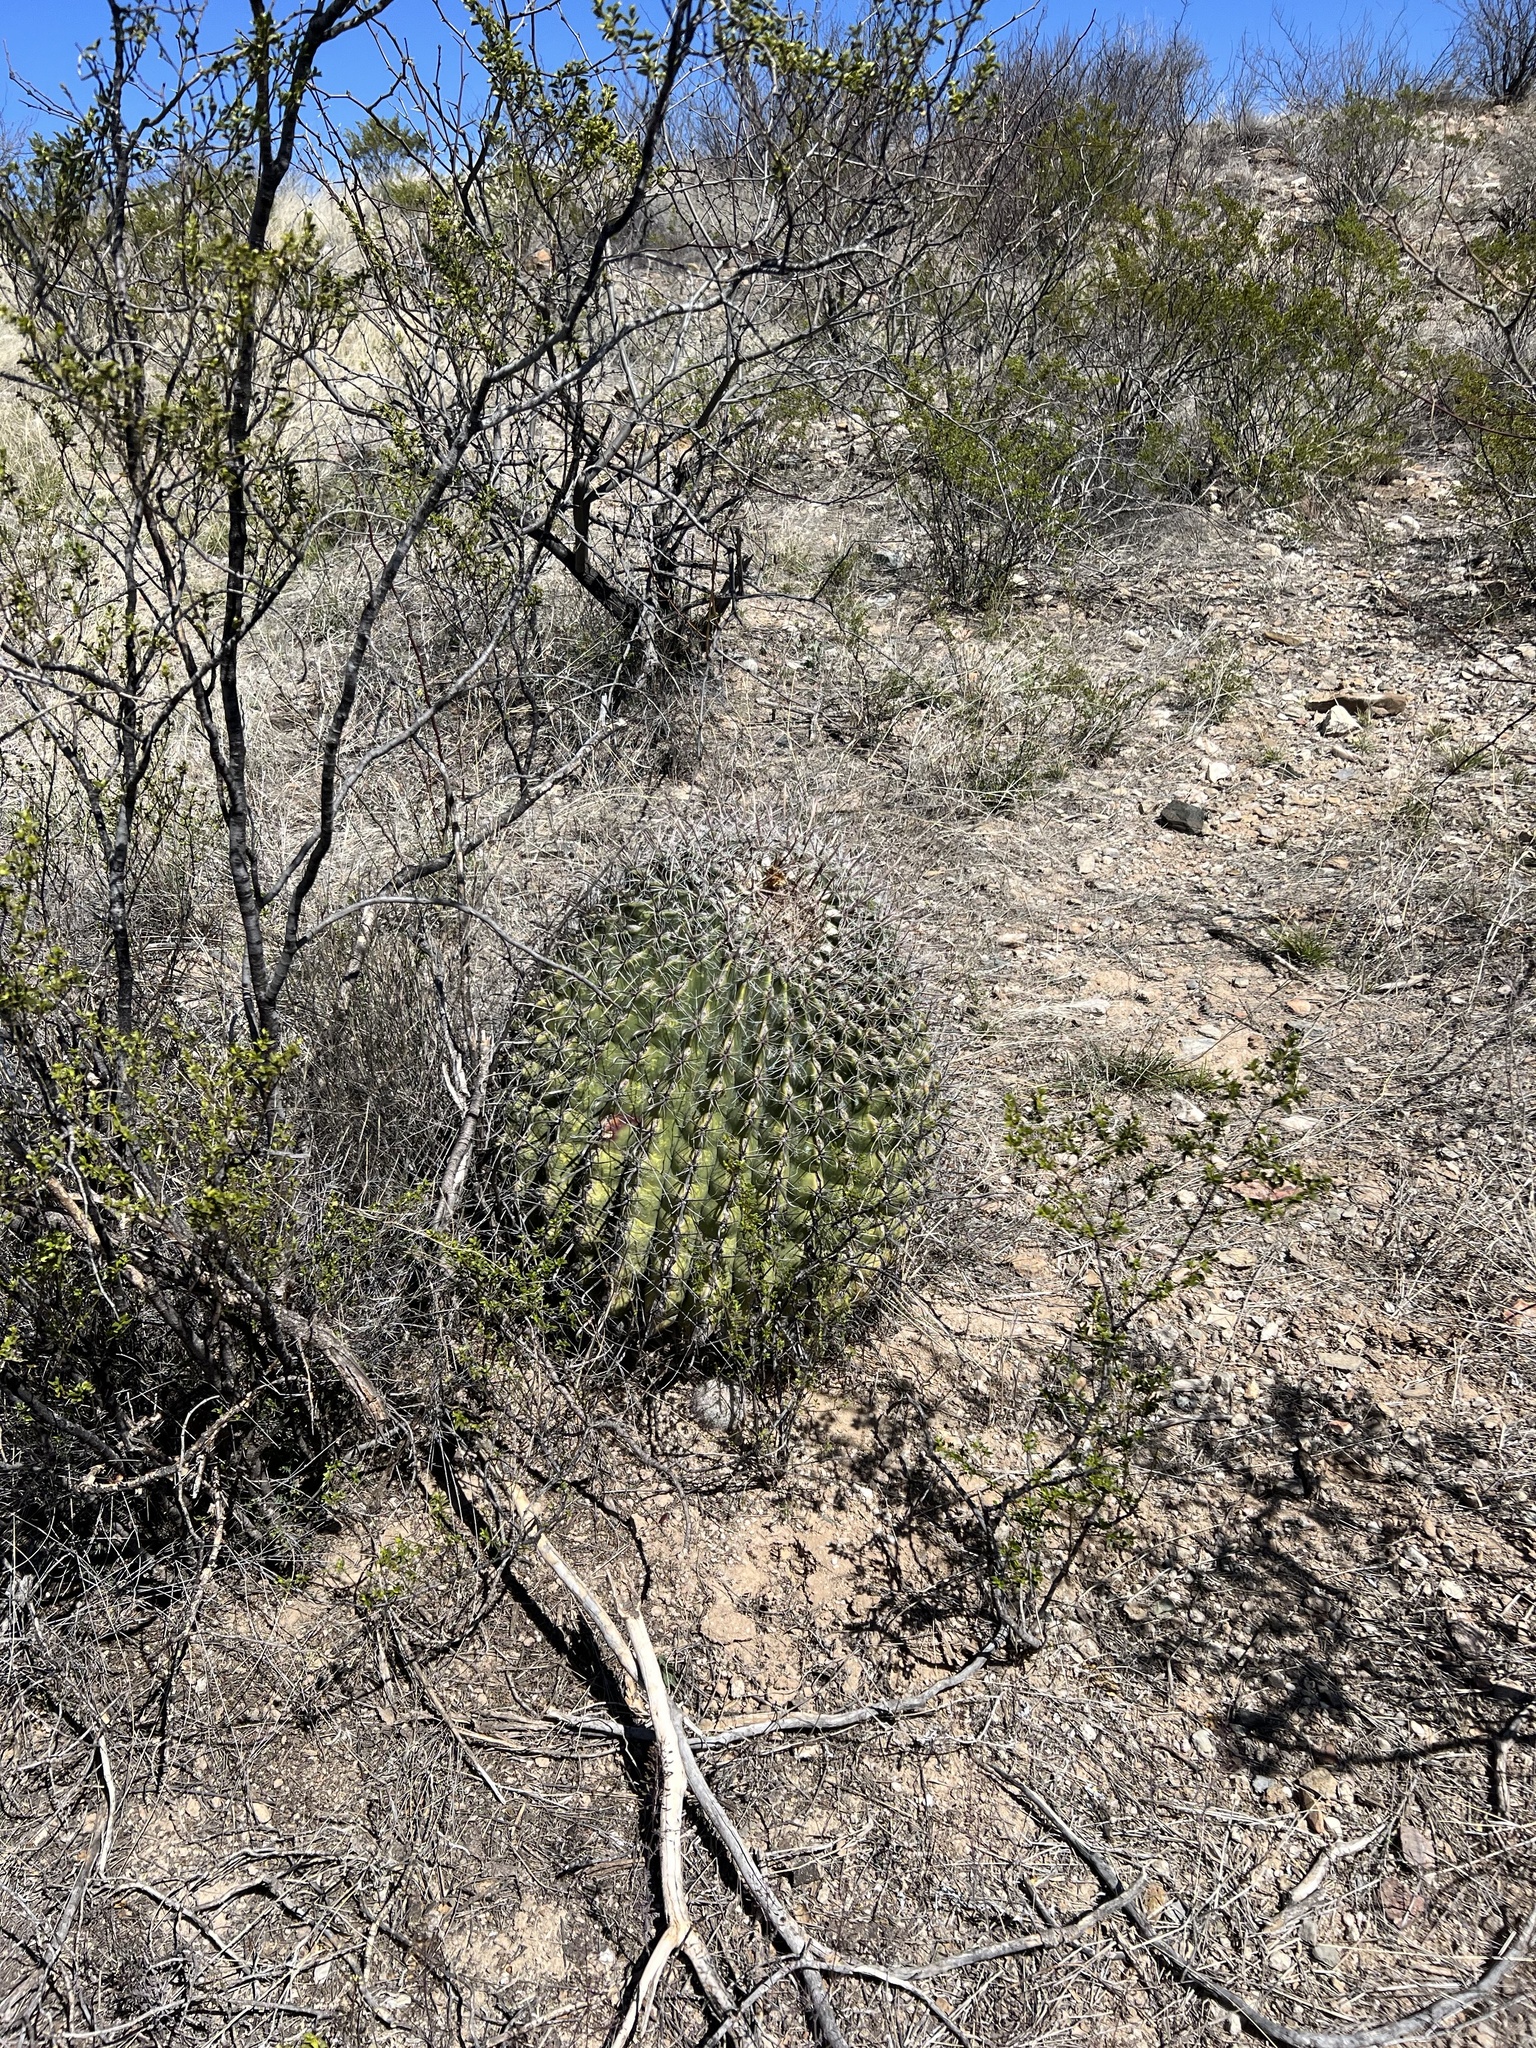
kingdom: Plantae
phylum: Tracheophyta
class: Magnoliopsida
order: Caryophyllales
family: Cactaceae
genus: Ferocactus
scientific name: Ferocactus wislizeni
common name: Candy barrel cactus
